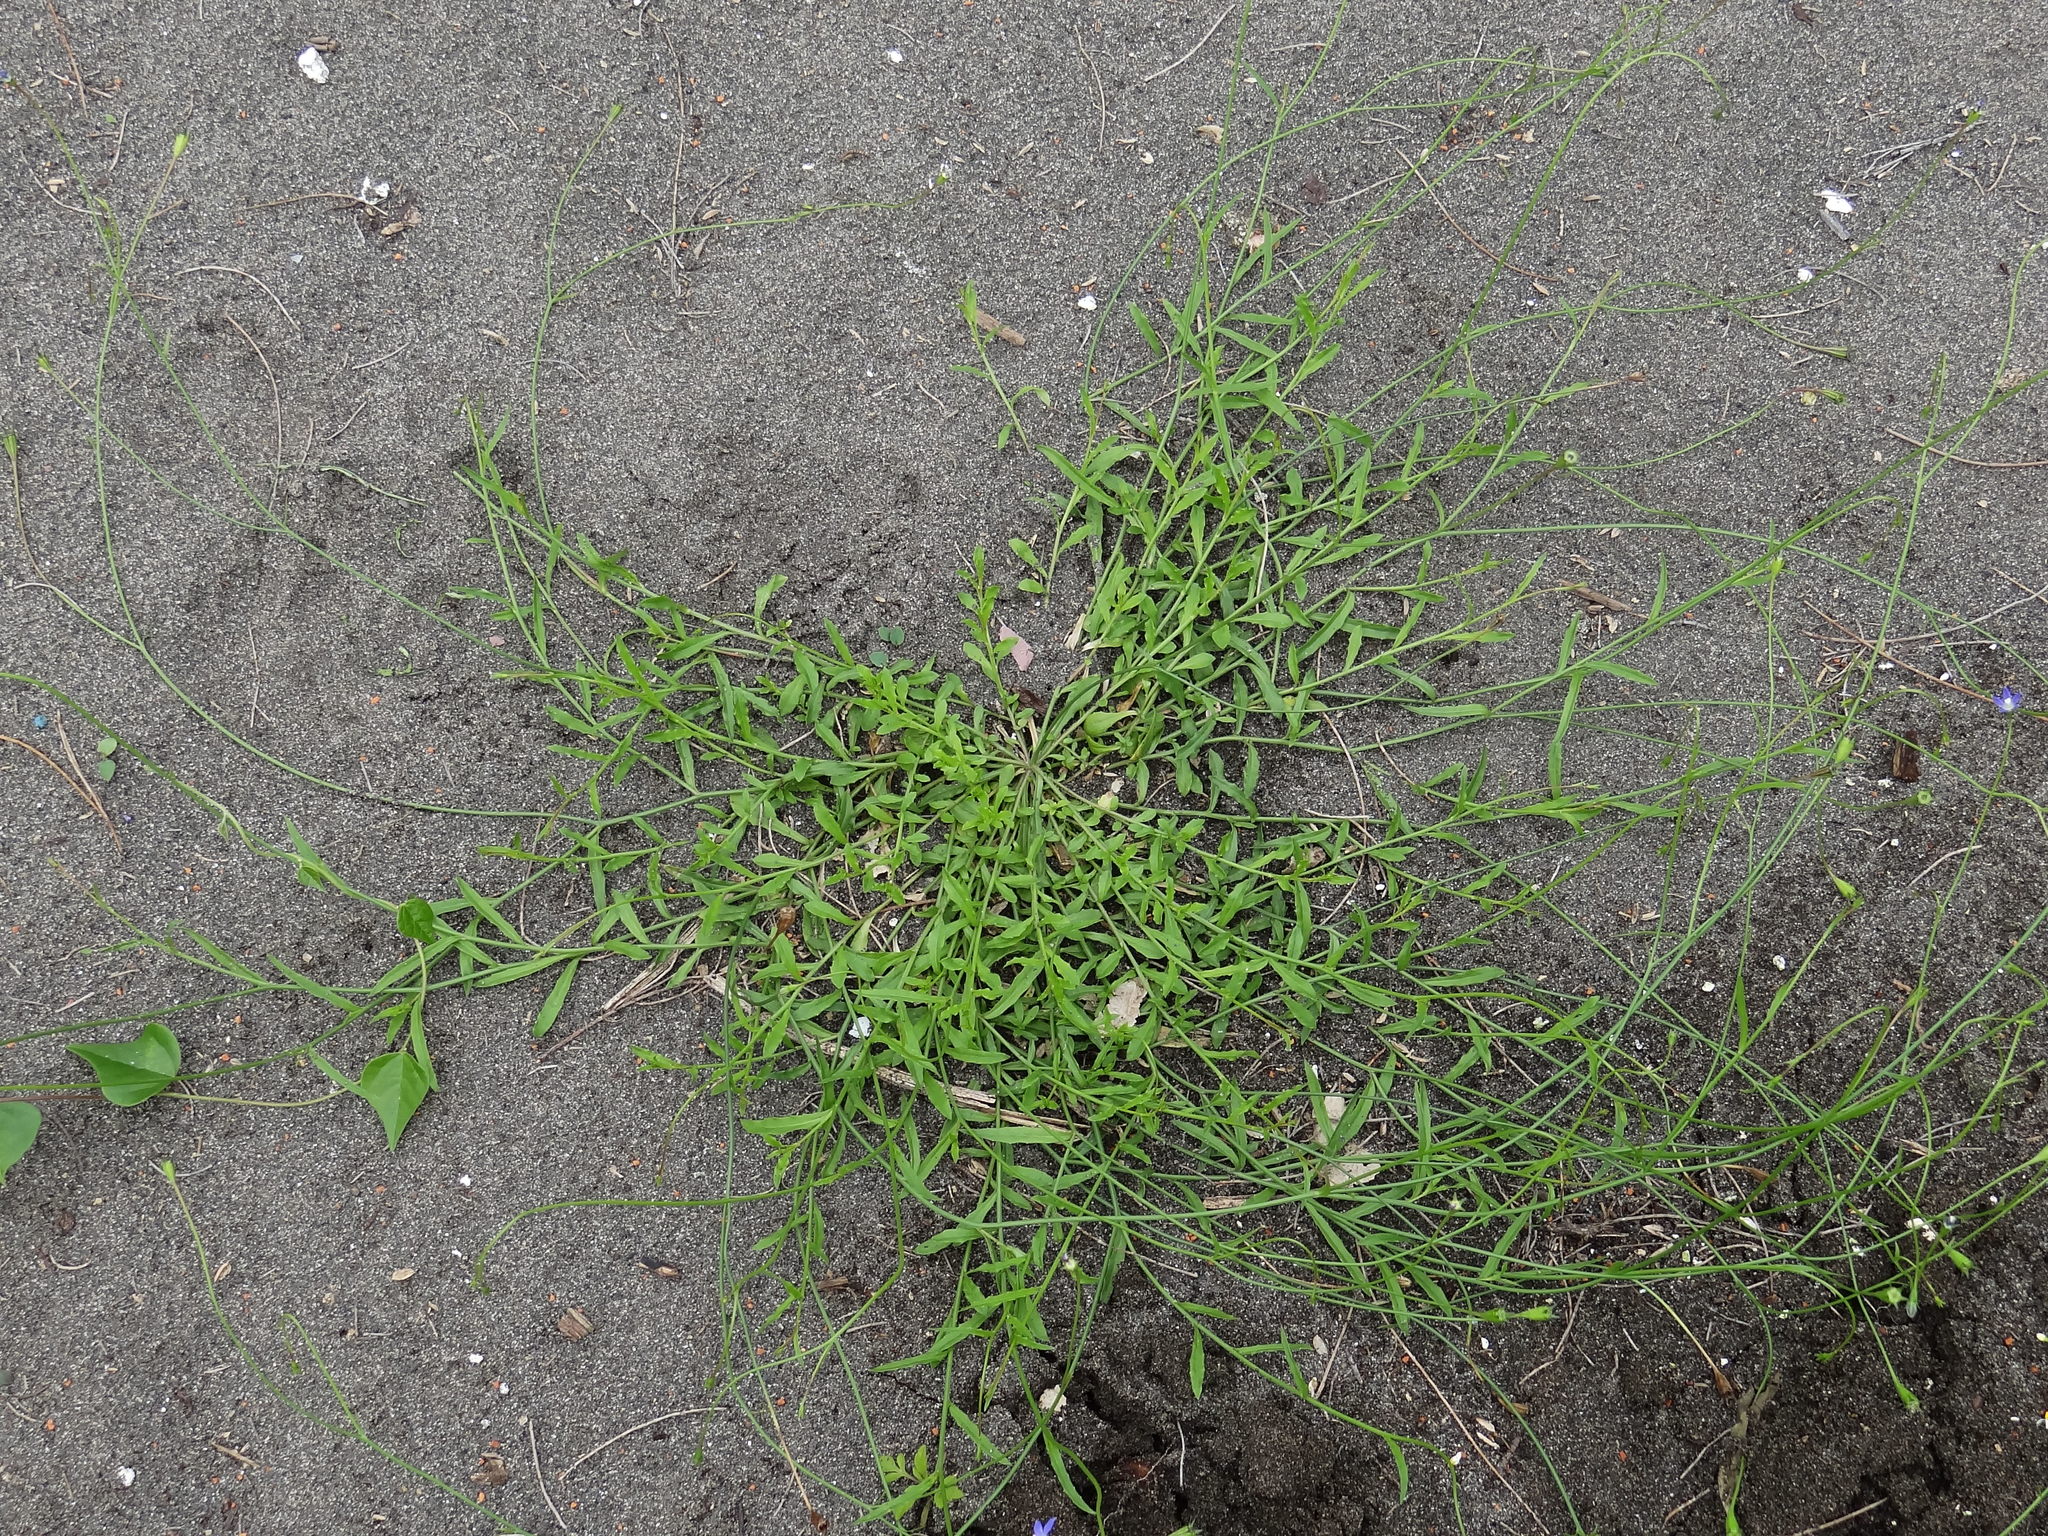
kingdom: Plantae
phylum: Tracheophyta
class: Magnoliopsida
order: Asterales
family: Campanulaceae
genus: Wahlenbergia
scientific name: Wahlenbergia marginata
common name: Southern rockbell
